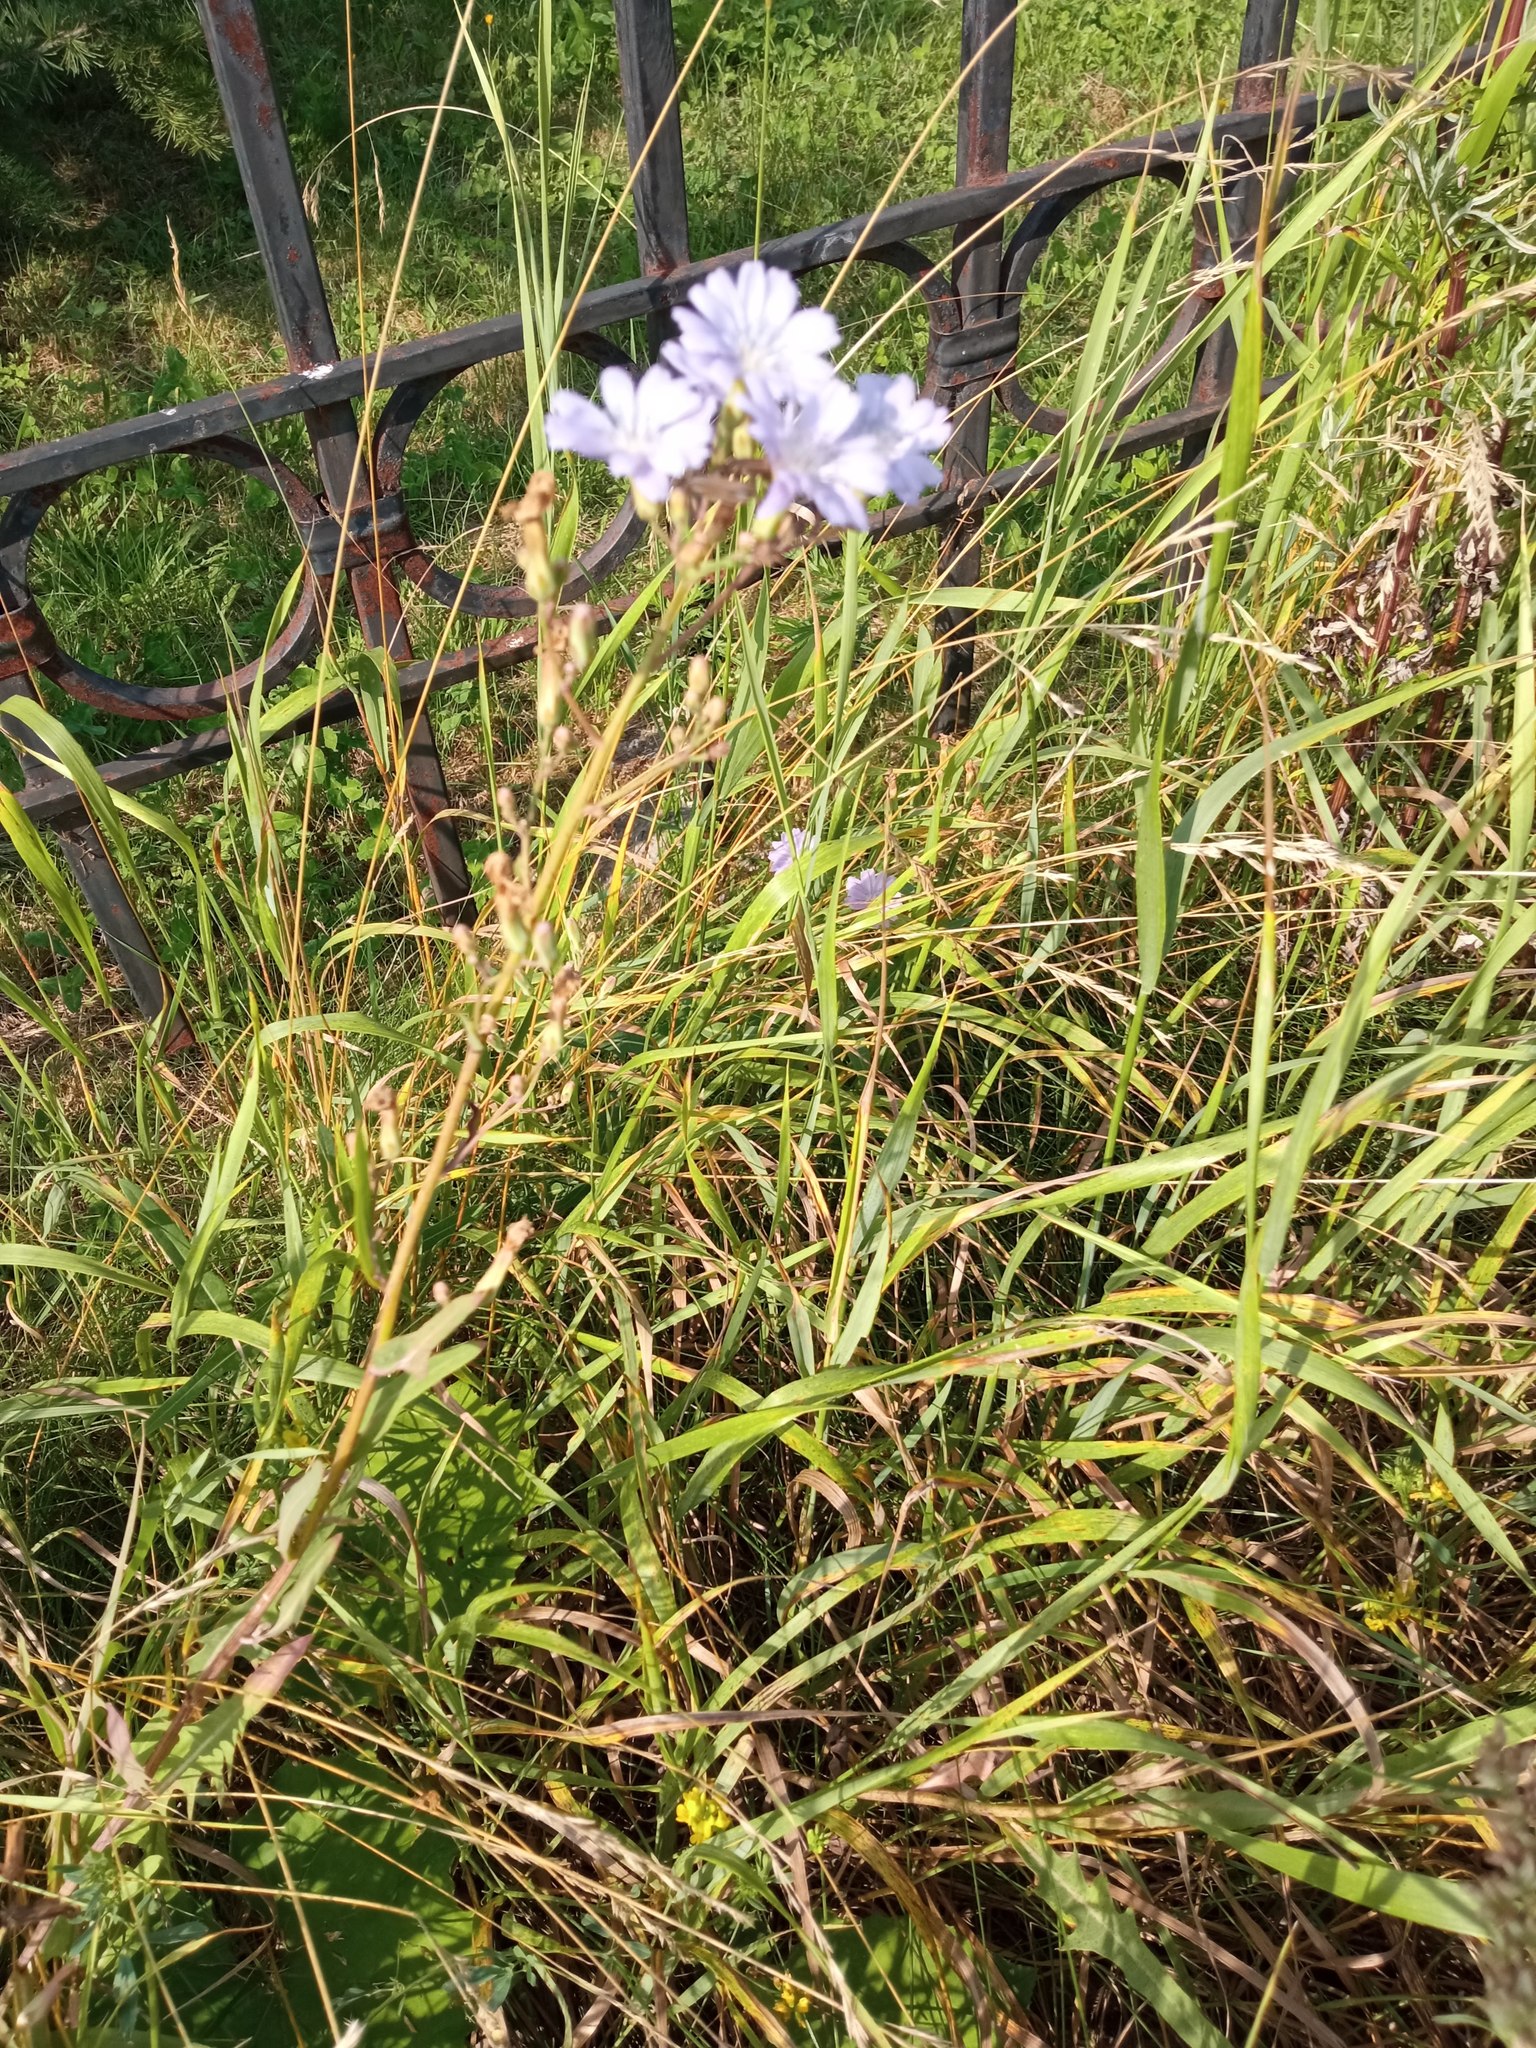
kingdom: Plantae
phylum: Tracheophyta
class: Magnoliopsida
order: Asterales
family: Asteraceae
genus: Cichorium
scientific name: Cichorium intybus
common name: Chicory
